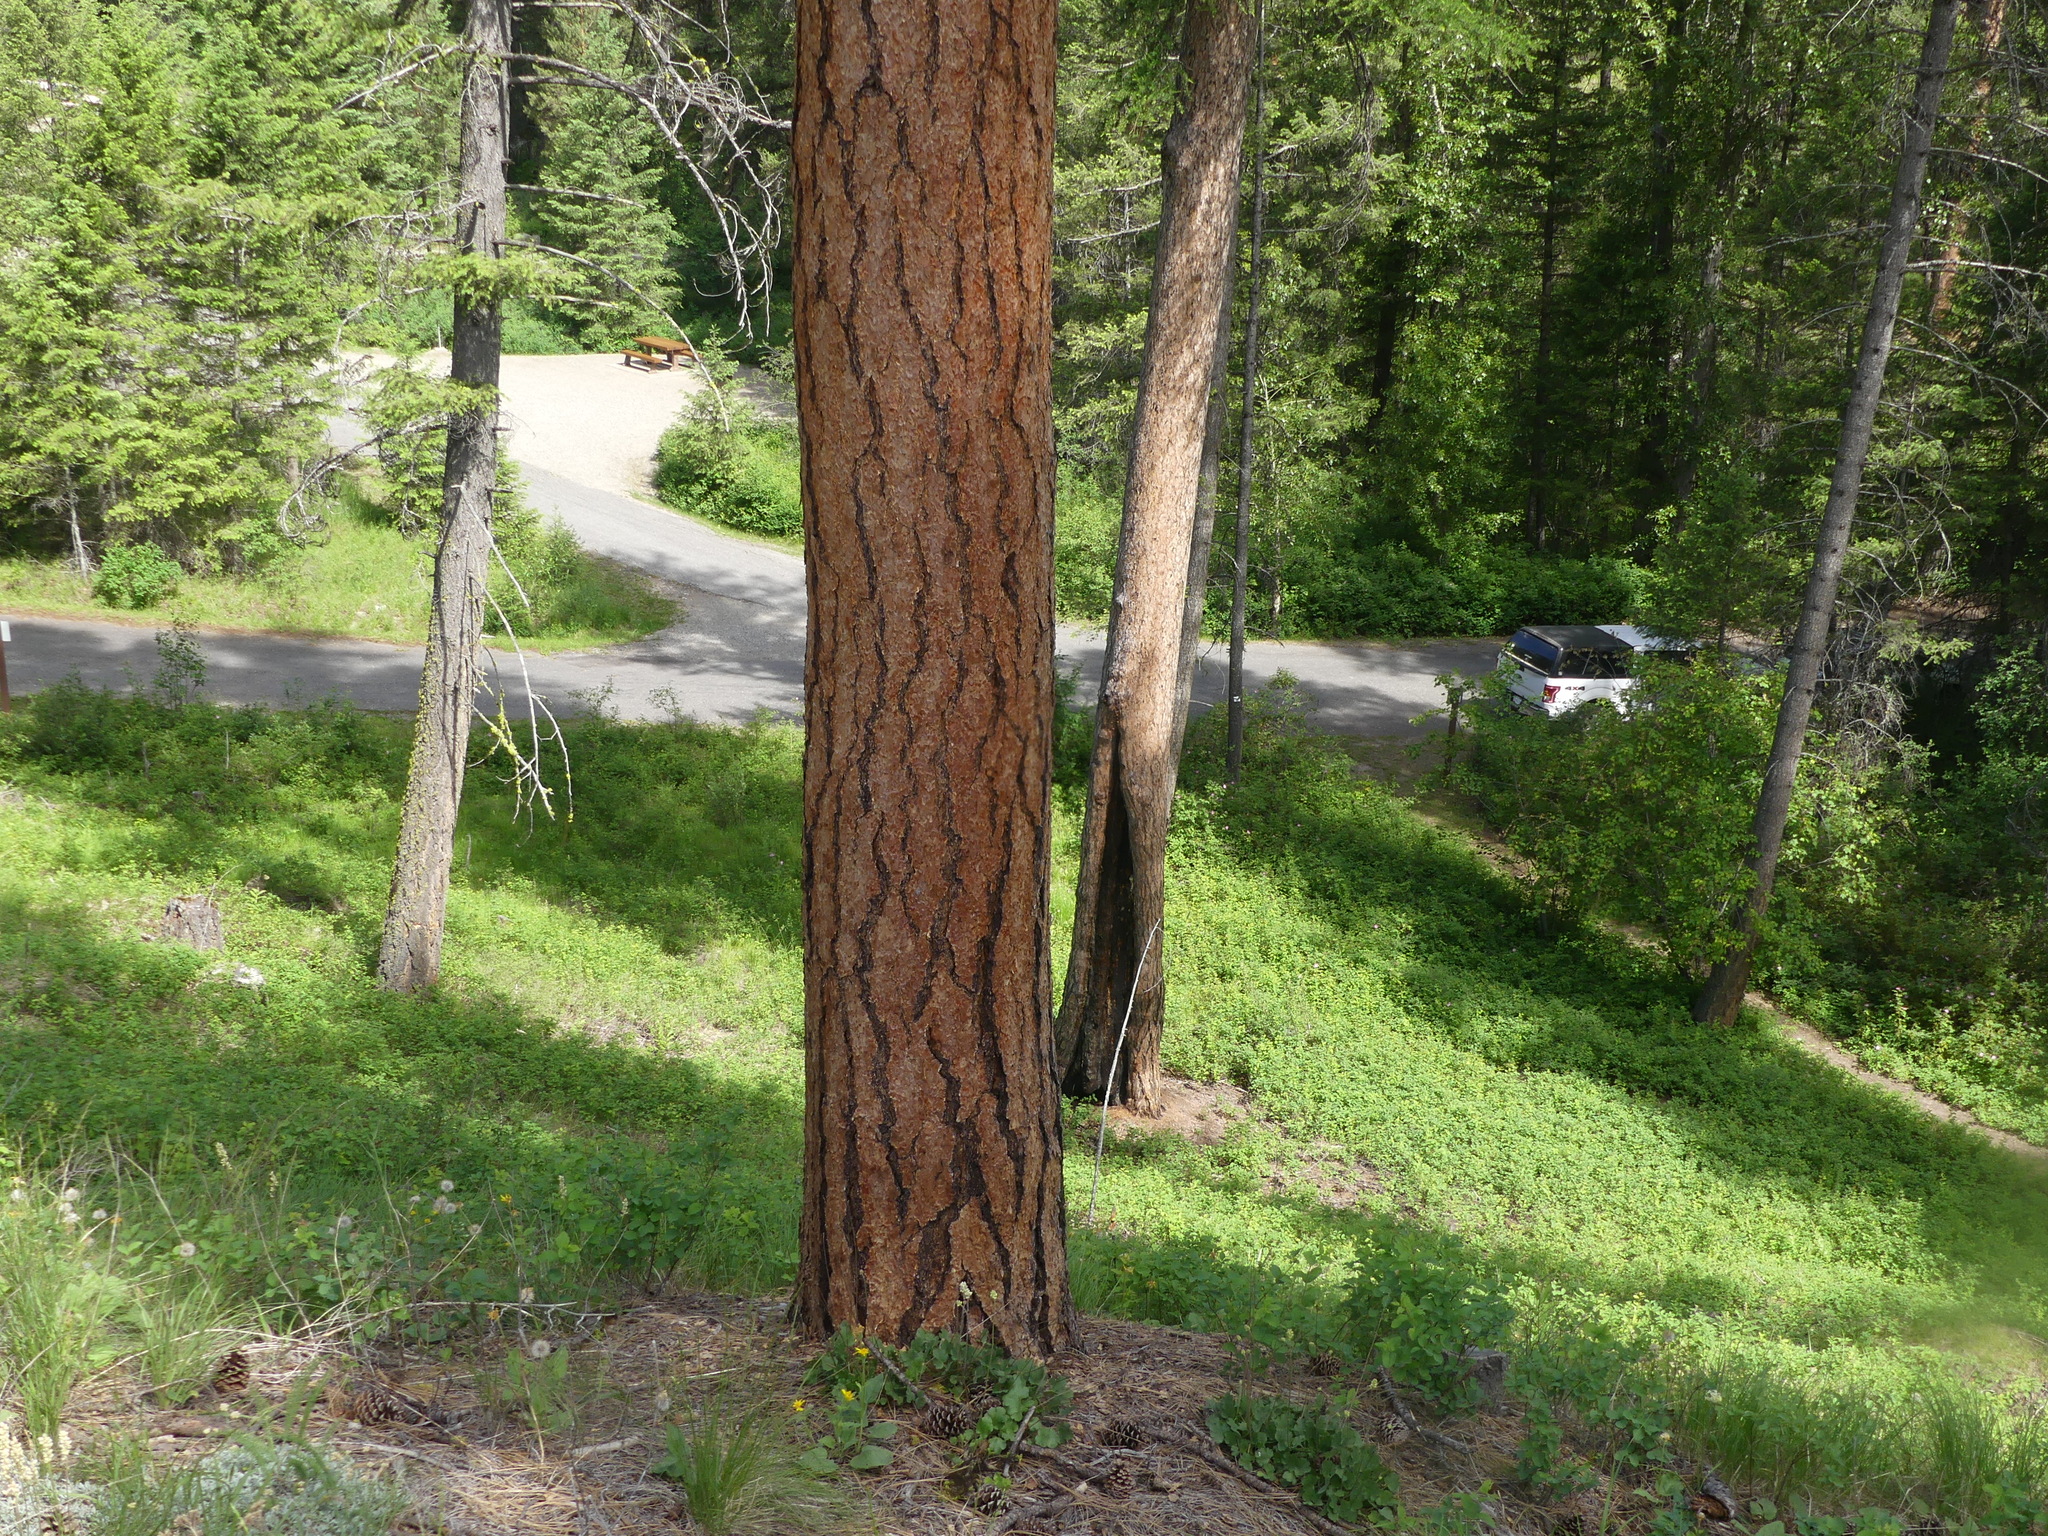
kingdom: Plantae
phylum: Tracheophyta
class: Pinopsida
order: Pinales
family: Pinaceae
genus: Pinus
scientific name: Pinus ponderosa
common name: Western yellow-pine
